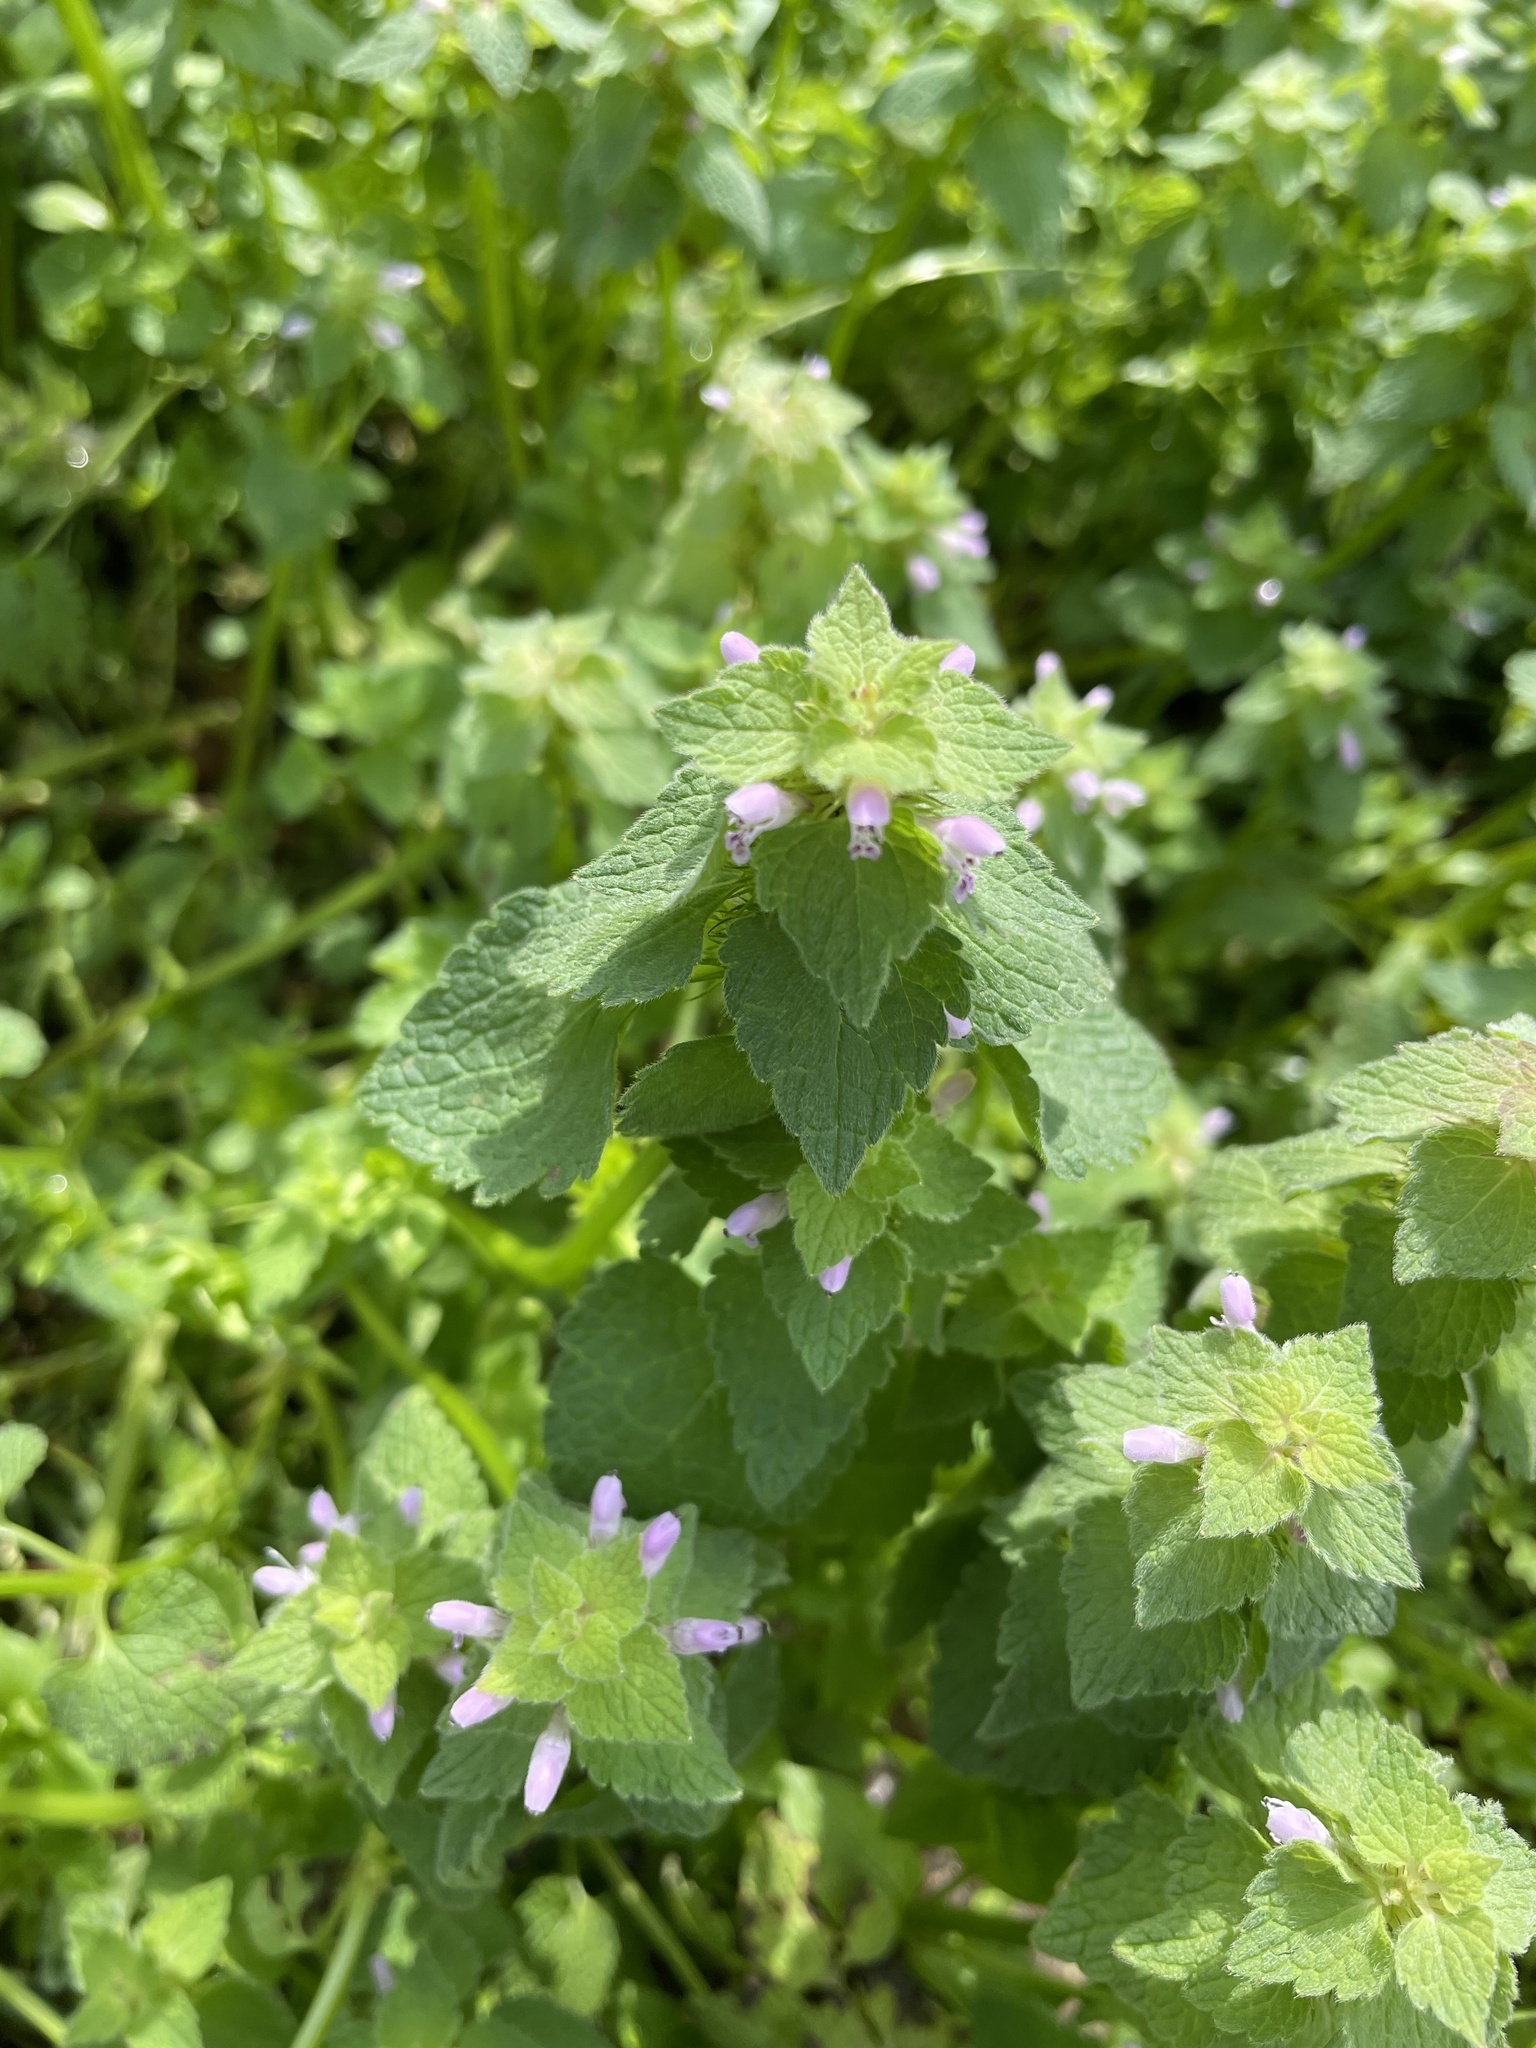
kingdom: Plantae
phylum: Tracheophyta
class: Magnoliopsida
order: Lamiales
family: Lamiaceae
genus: Lamium
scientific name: Lamium purpureum
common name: Red dead-nettle
